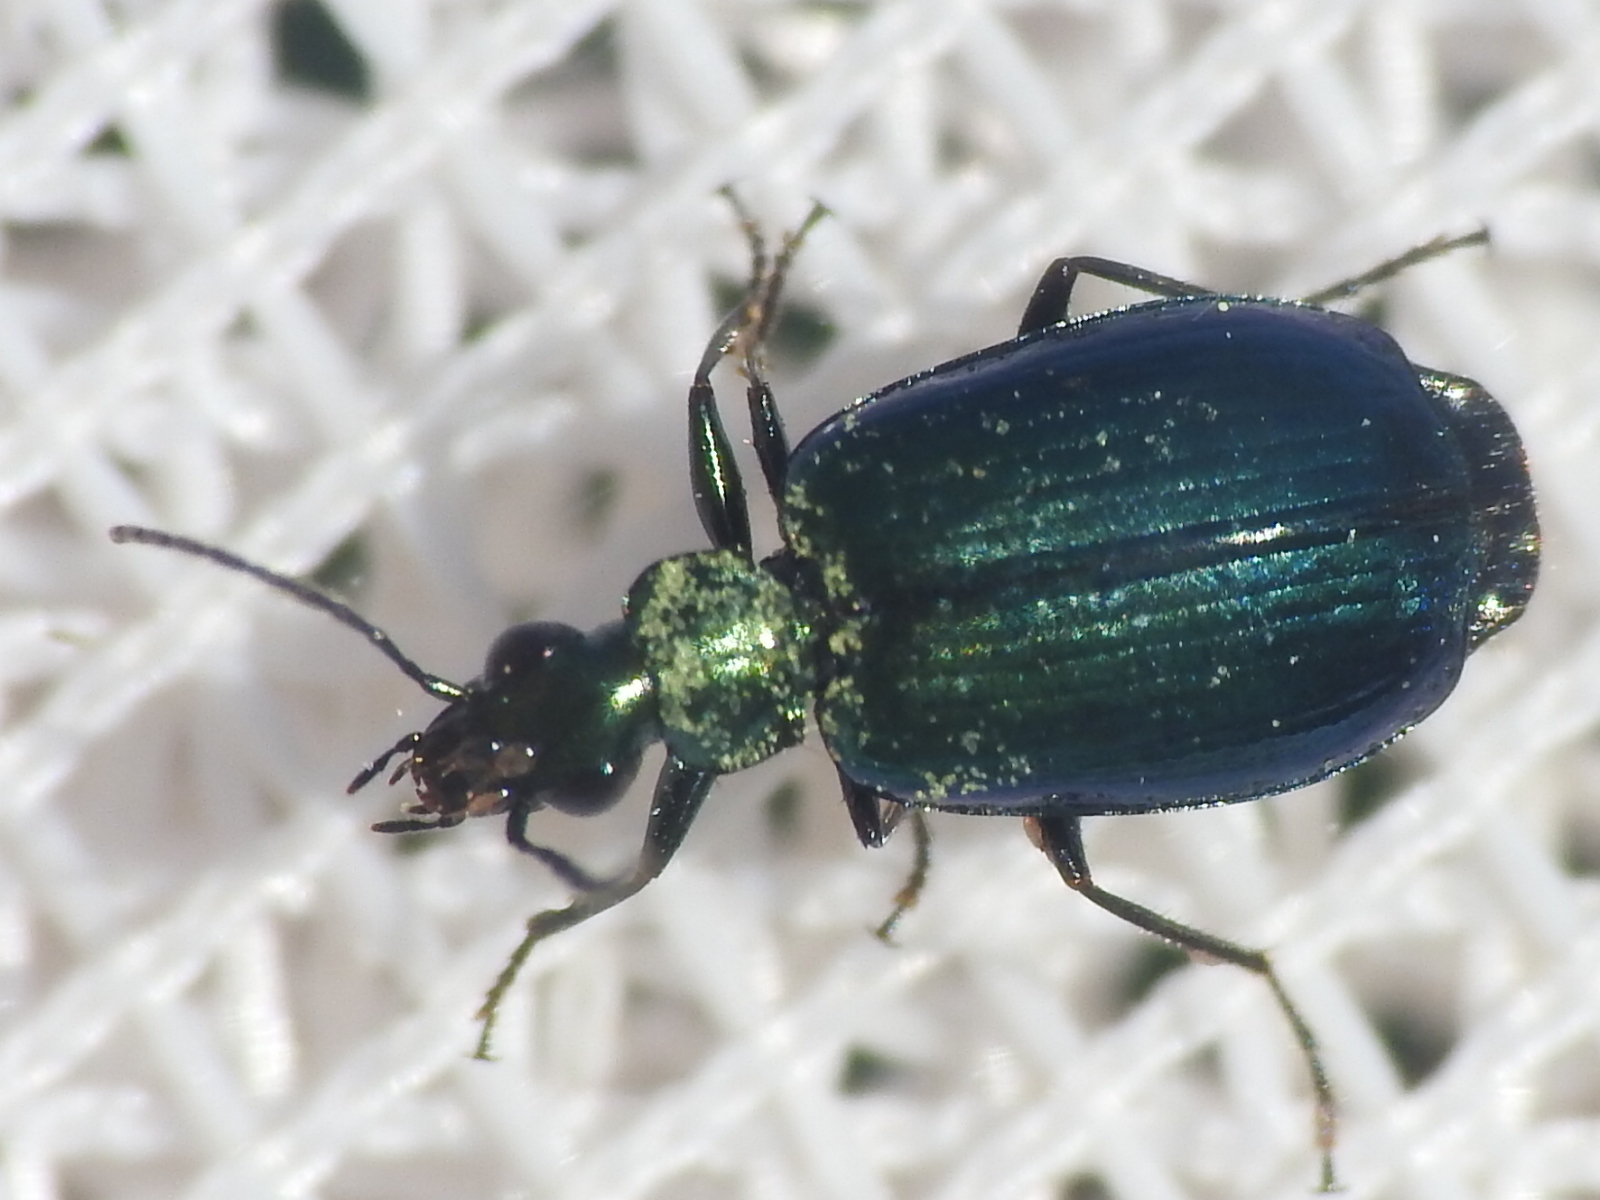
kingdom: Animalia
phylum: Arthropoda
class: Insecta
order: Coleoptera
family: Carabidae
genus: Lebia
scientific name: Lebia viridis
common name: Flower lebia beetle
